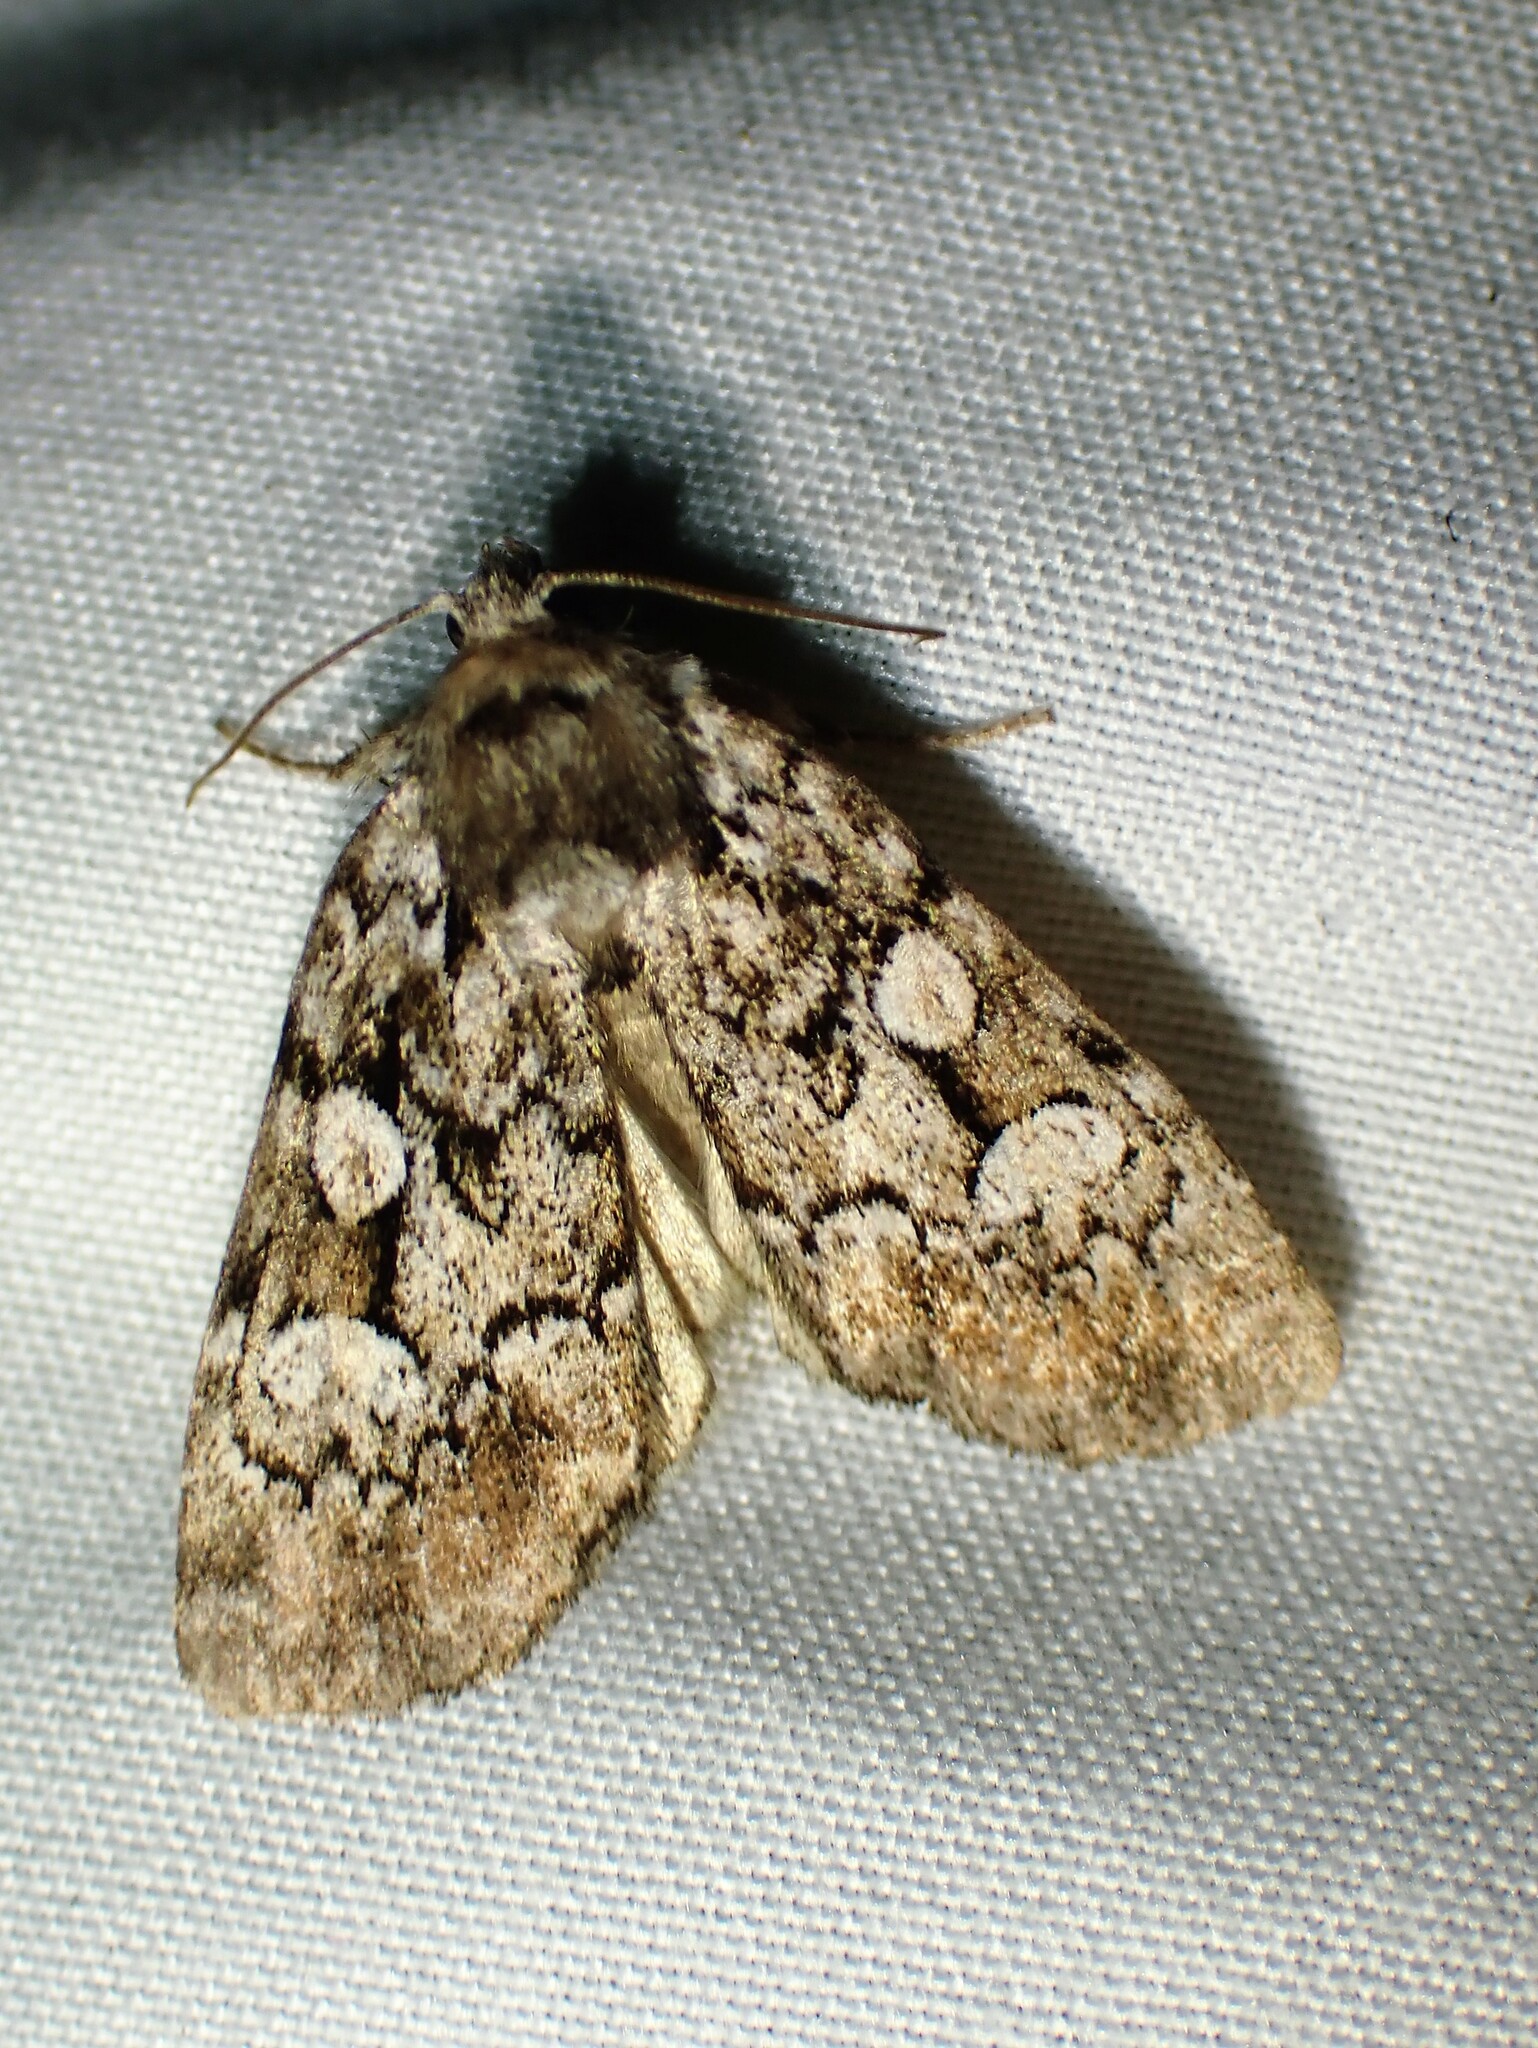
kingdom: Animalia
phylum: Arthropoda
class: Insecta
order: Lepidoptera
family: Noctuidae
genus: Aplectoides
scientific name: Aplectoides condita
